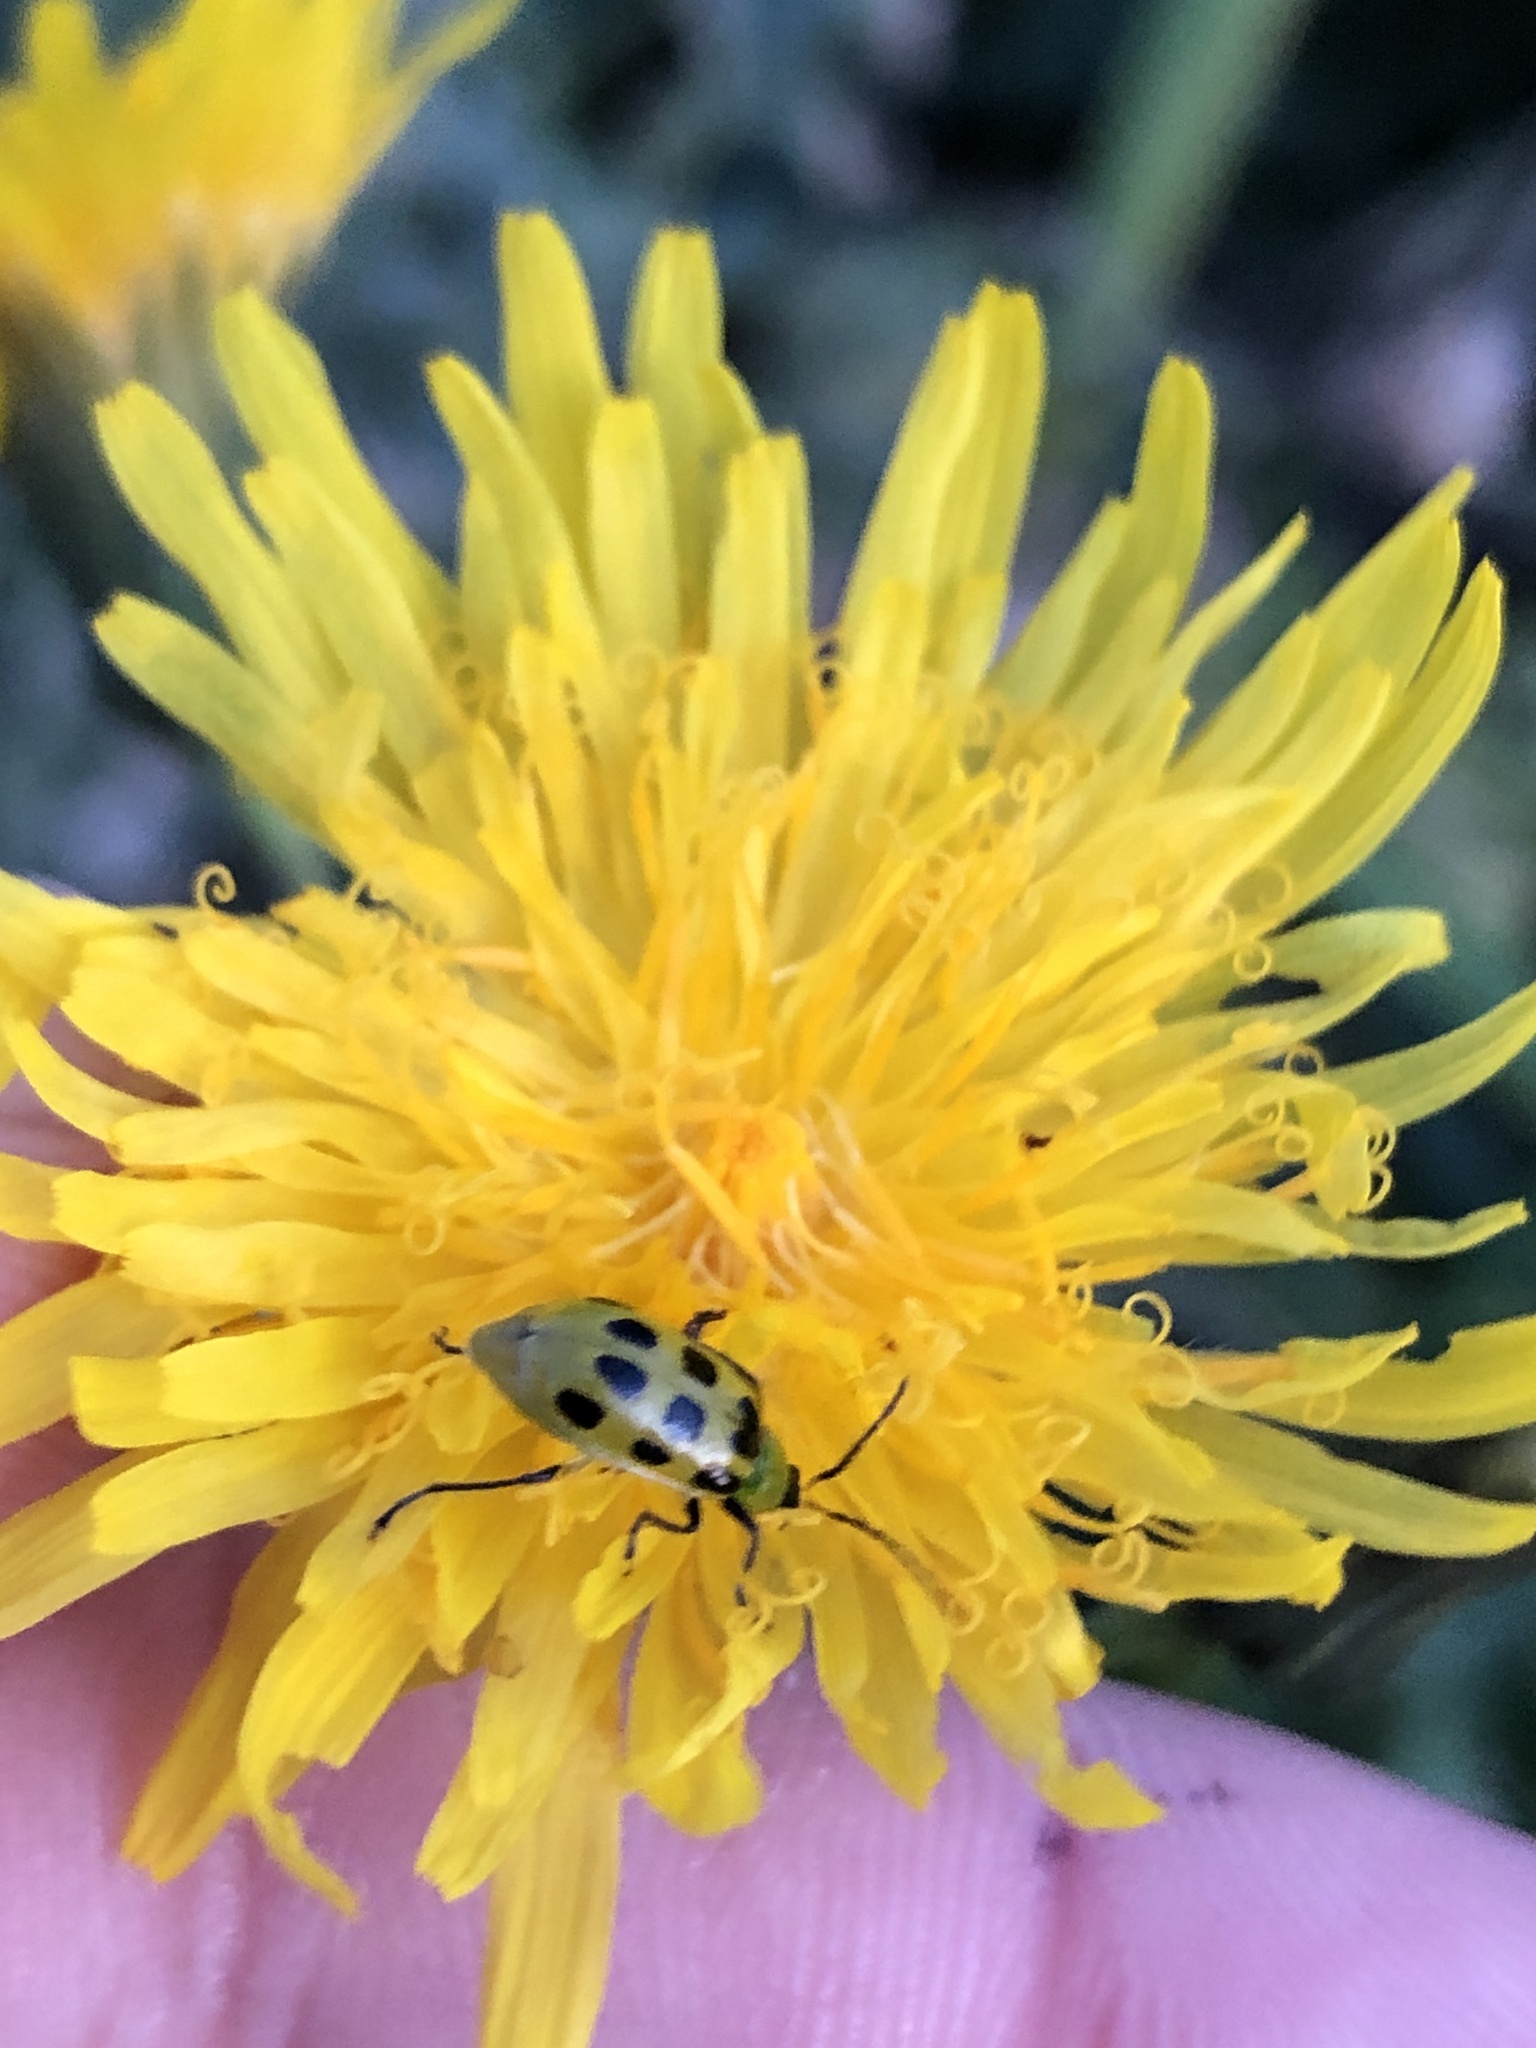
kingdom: Animalia
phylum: Arthropoda
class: Insecta
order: Coleoptera
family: Chrysomelidae
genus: Diabrotica
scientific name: Diabrotica undecimpunctata
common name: Spotted cucumber beetle
